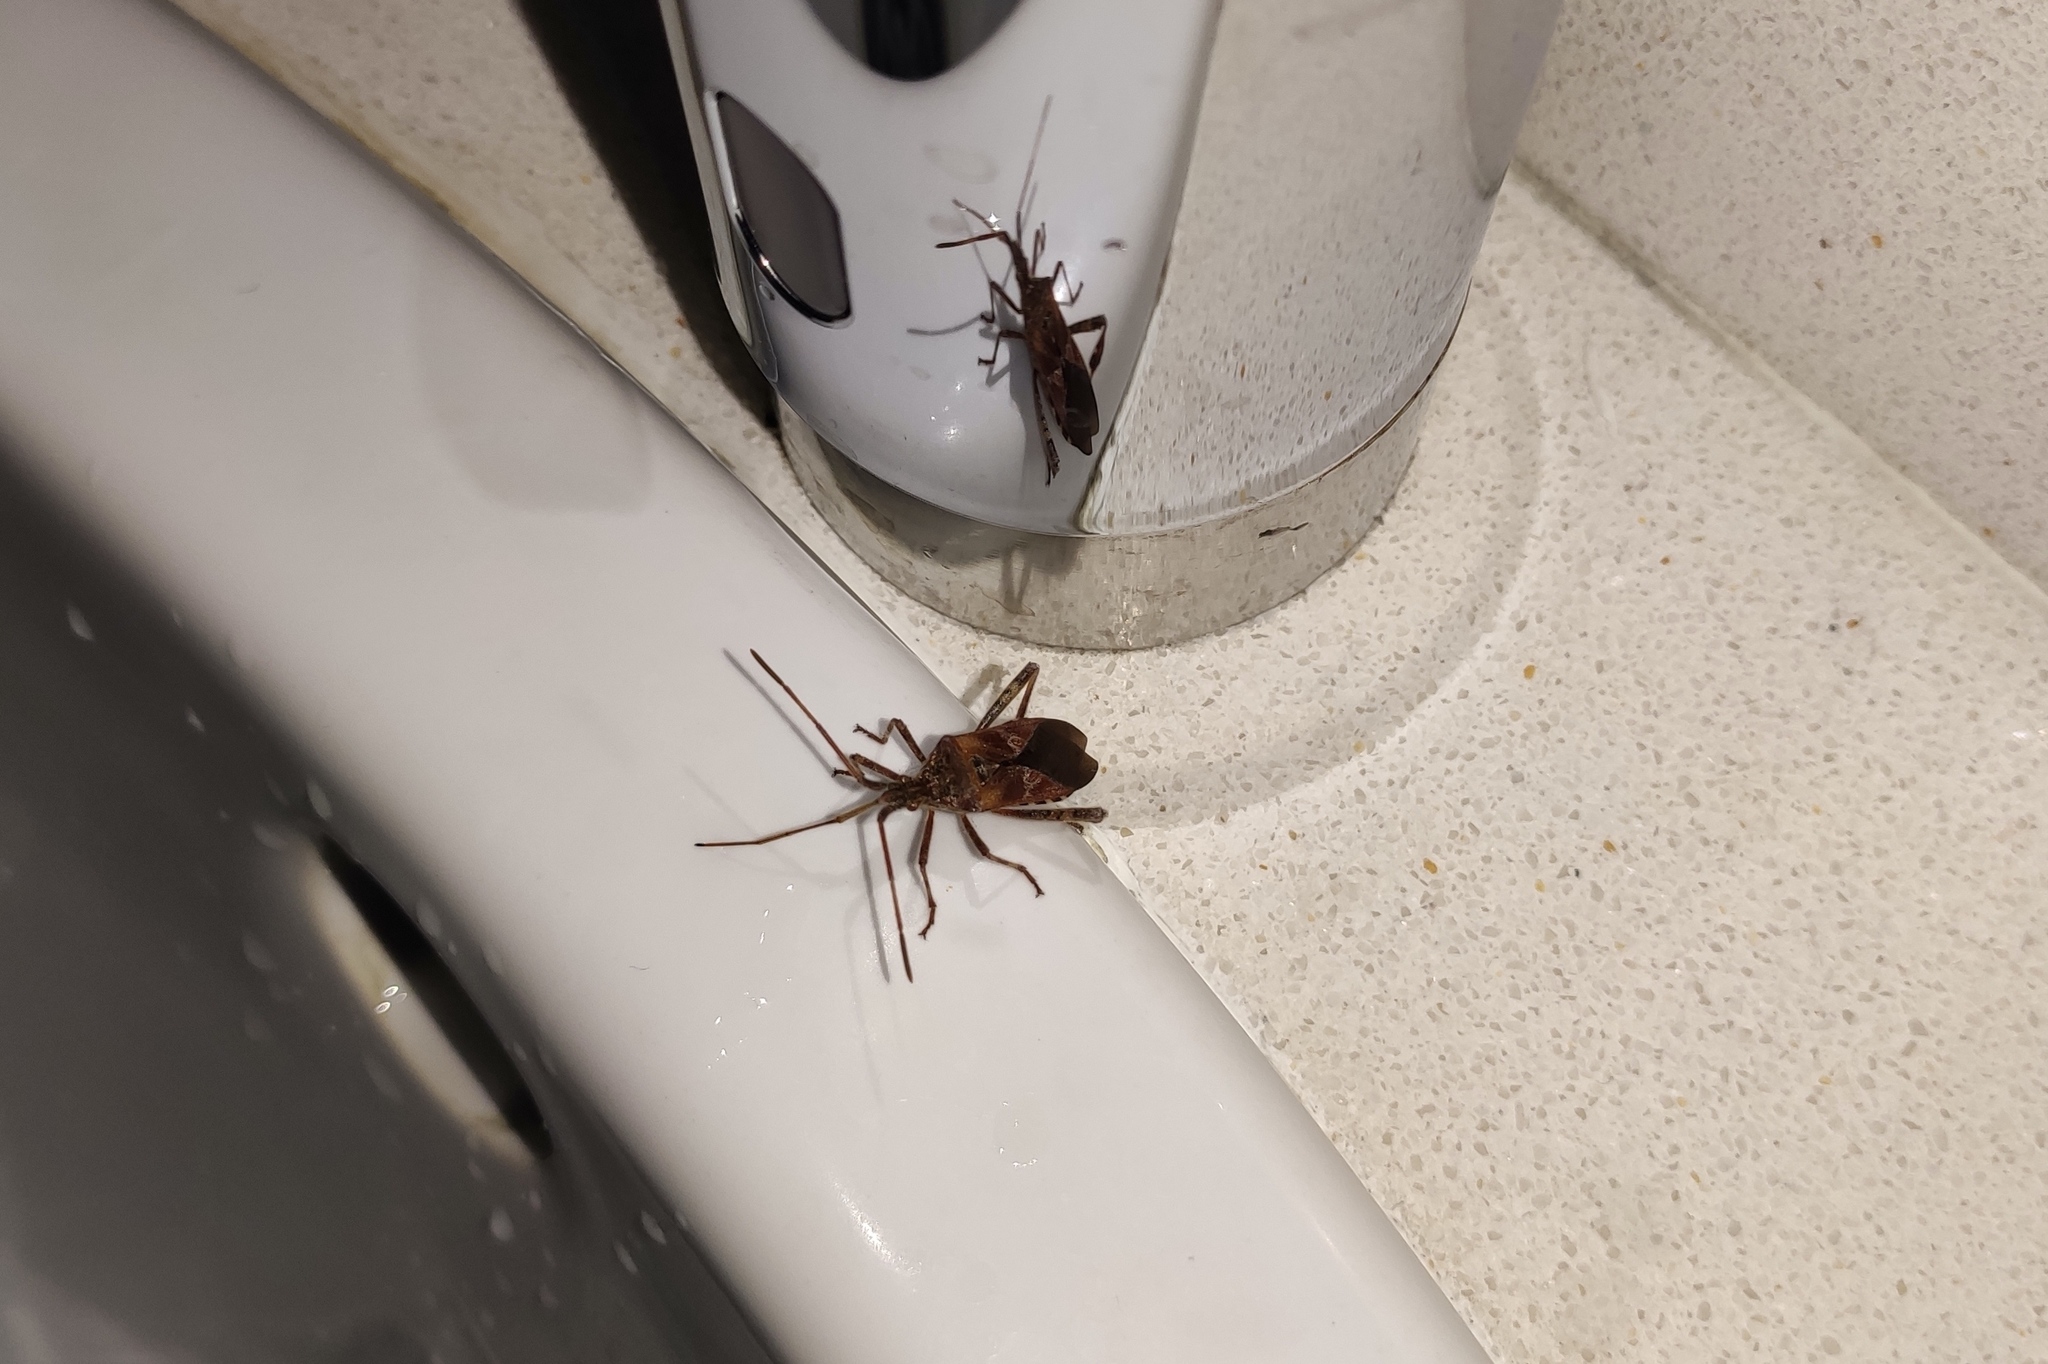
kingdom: Animalia
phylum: Arthropoda
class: Insecta
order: Hemiptera
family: Coreidae
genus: Leptoglossus
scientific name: Leptoglossus occidentalis
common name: Western conifer-seed bug
